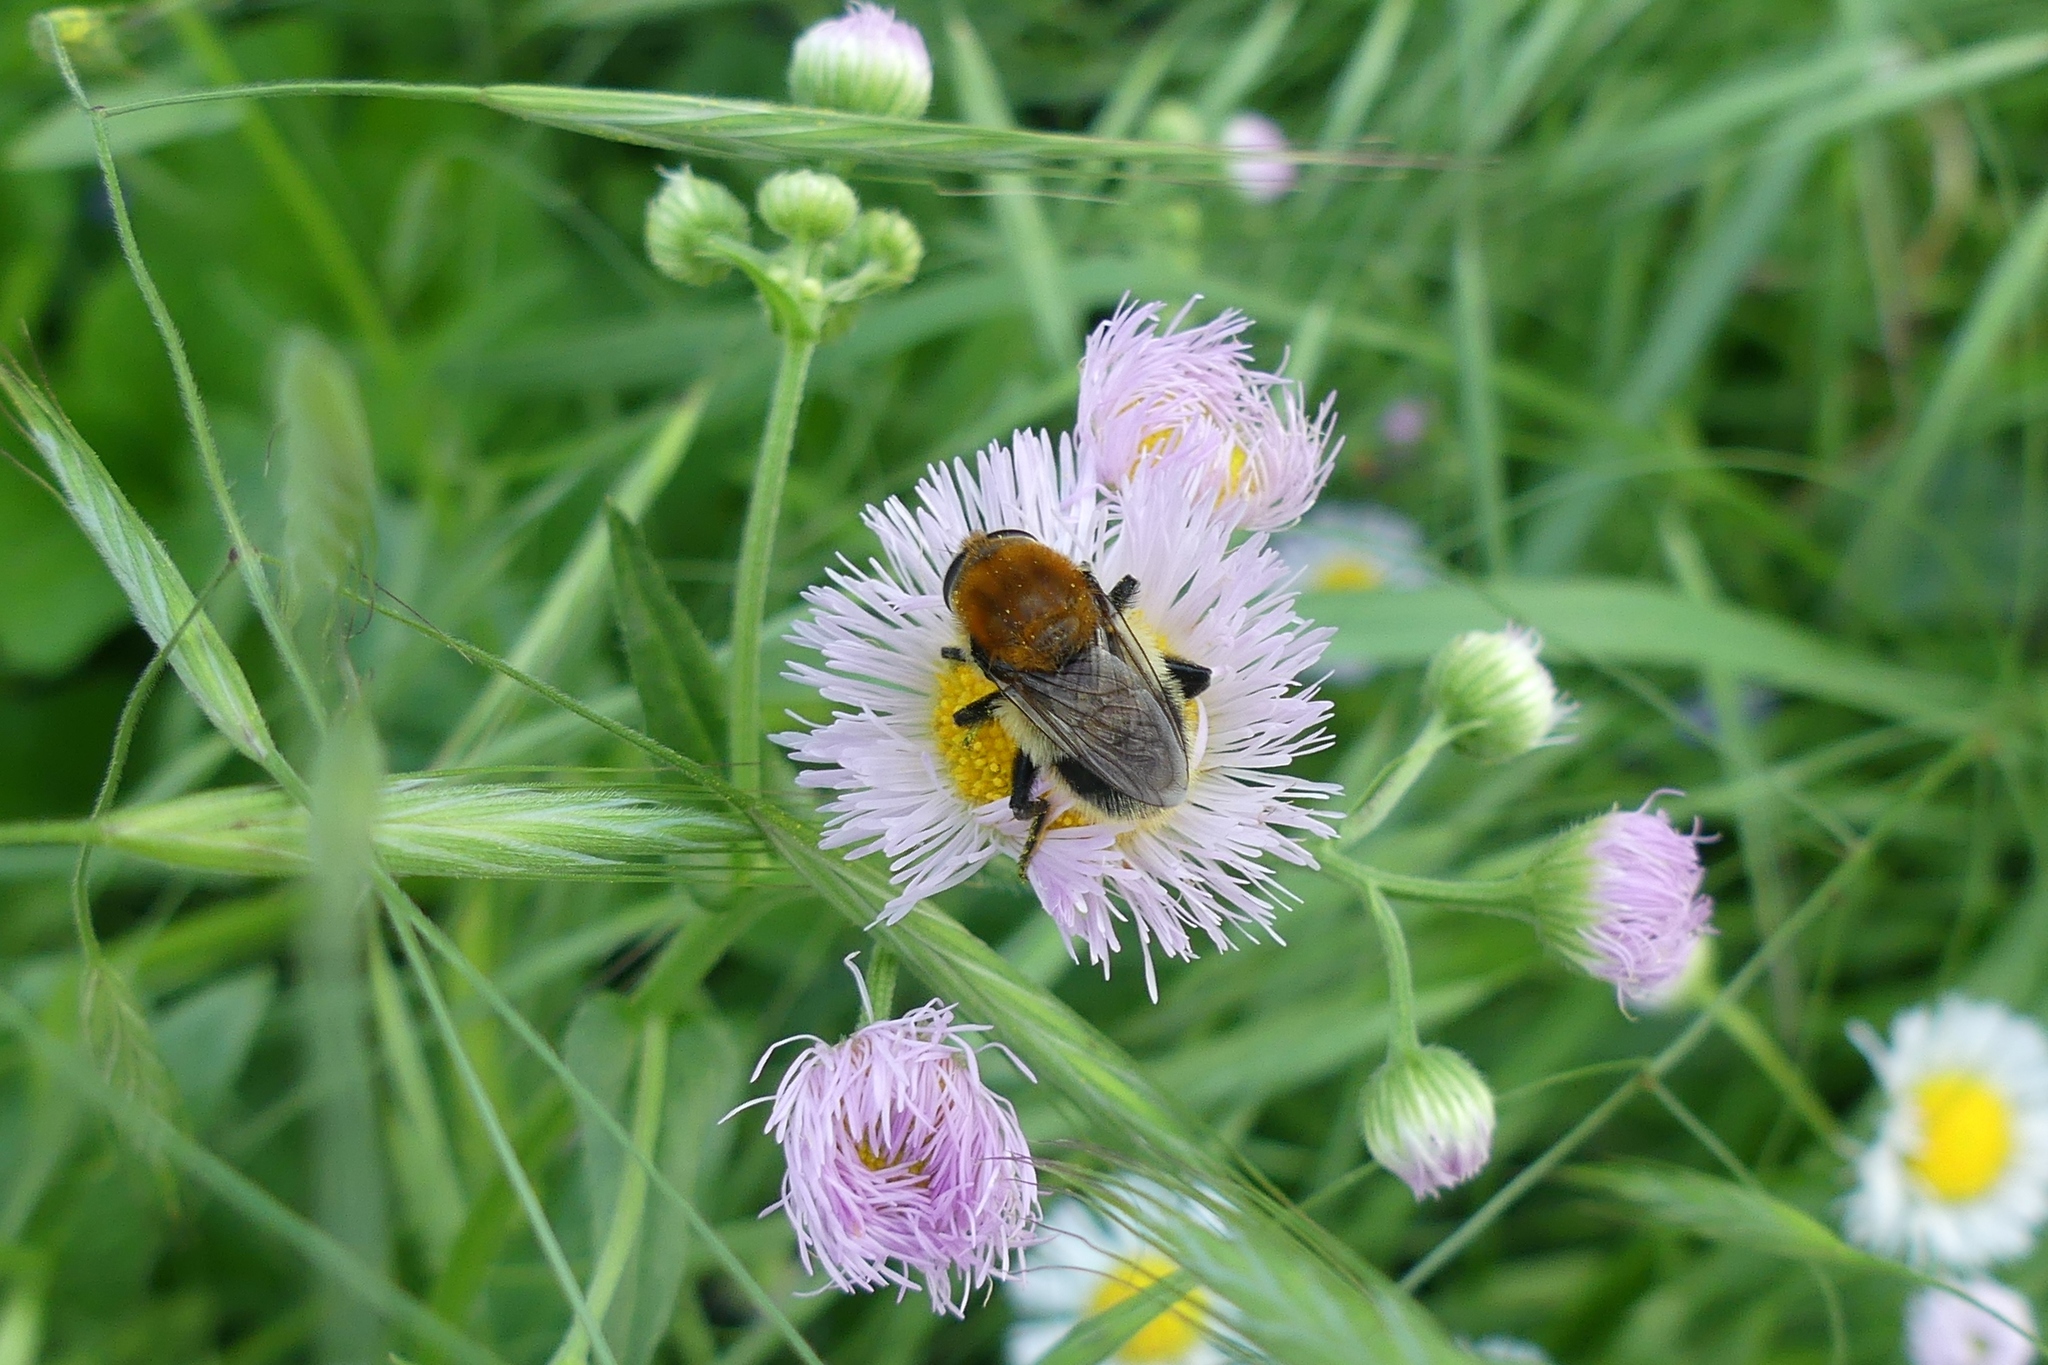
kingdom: Animalia
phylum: Arthropoda
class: Insecta
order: Diptera
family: Syrphidae
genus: Merodon
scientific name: Merodon equestris
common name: Greater bulb-fly
